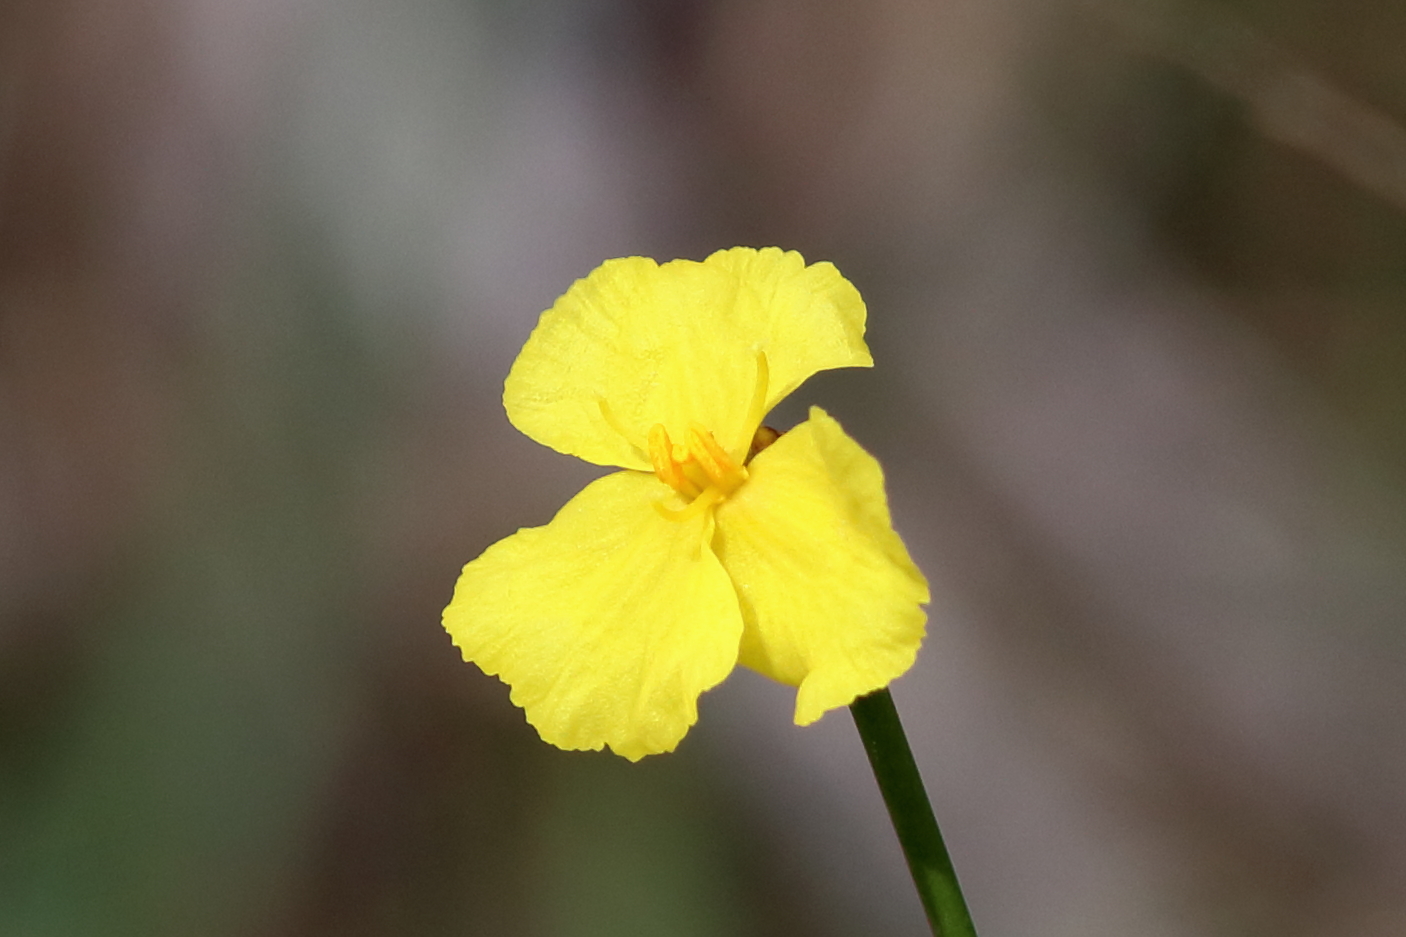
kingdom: Plantae
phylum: Tracheophyta
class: Liliopsida
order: Poales
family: Xyridaceae
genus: Xyris
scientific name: Xyris baldwiniana
